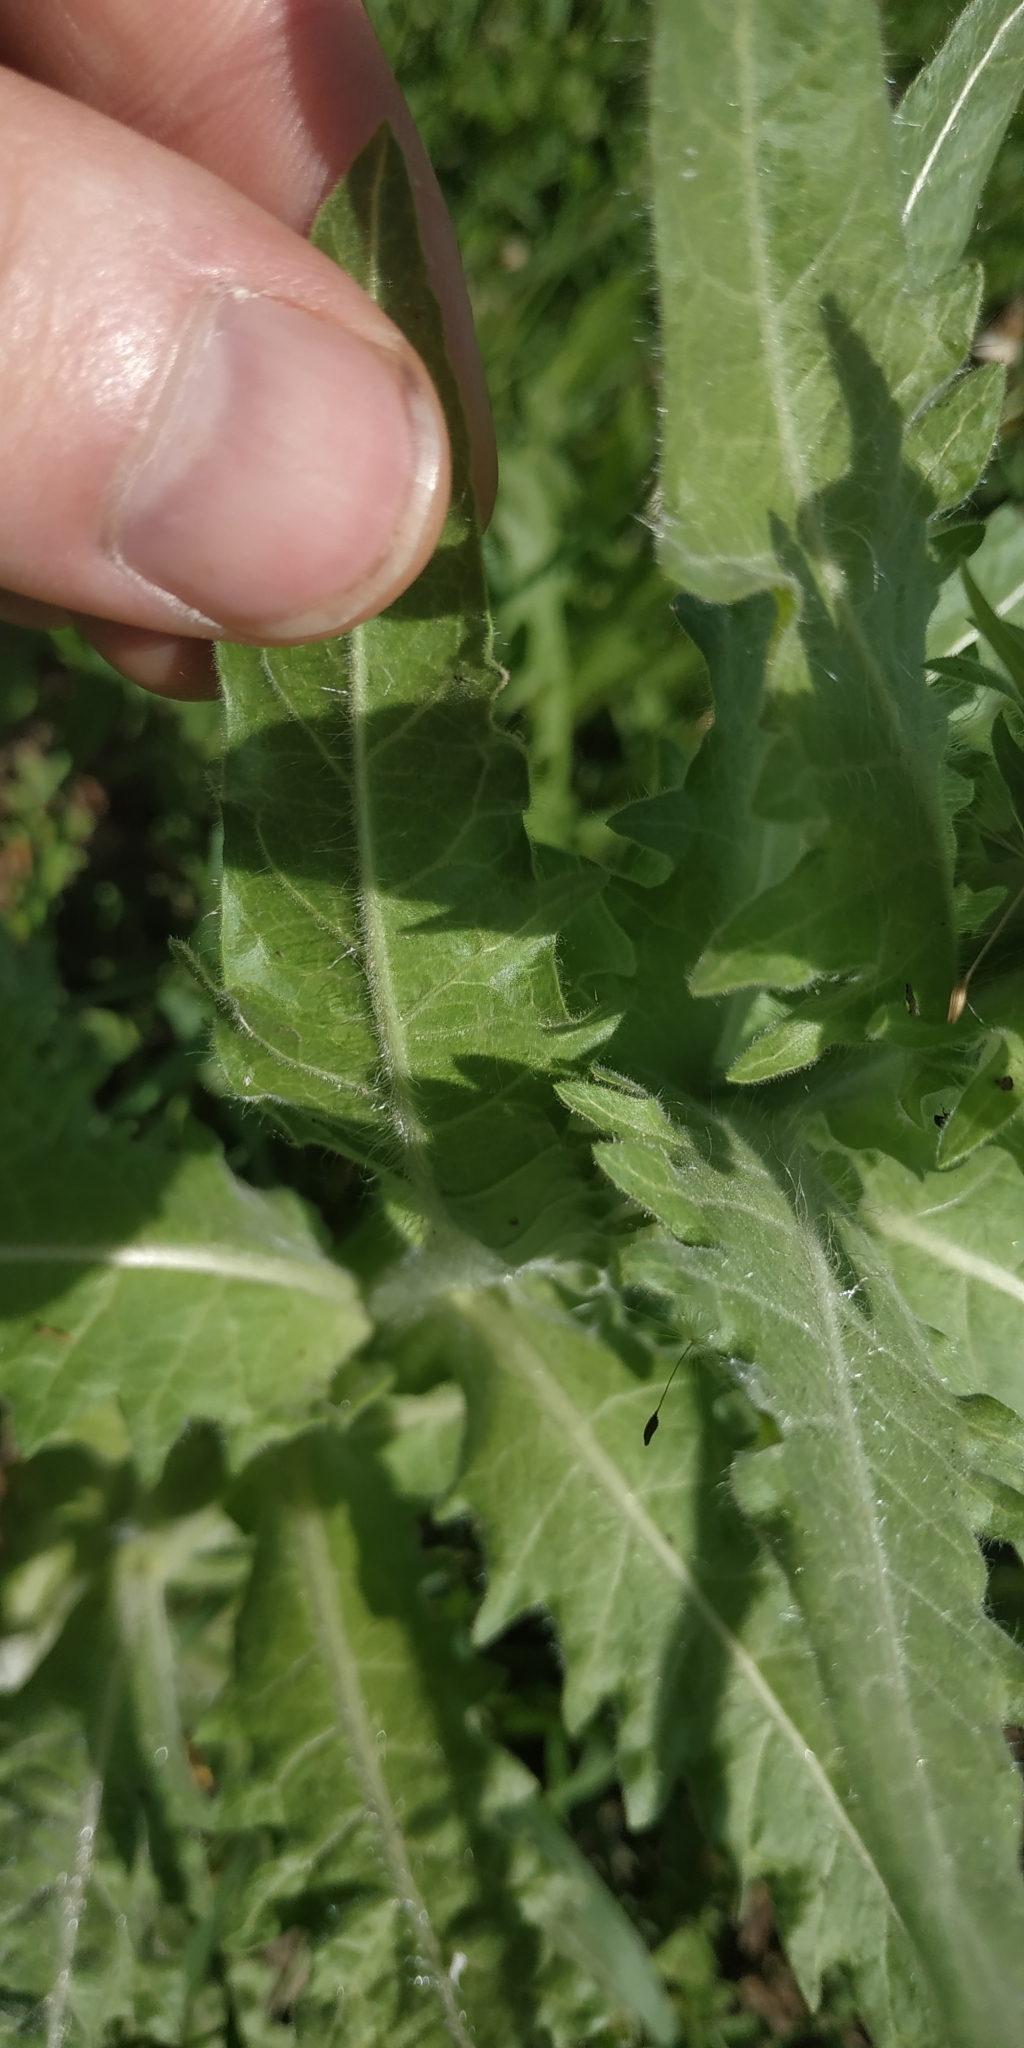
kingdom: Plantae
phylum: Tracheophyta
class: Magnoliopsida
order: Solanales
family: Solanaceae
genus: Hyoscyamus
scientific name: Hyoscyamus niger
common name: Henbane
